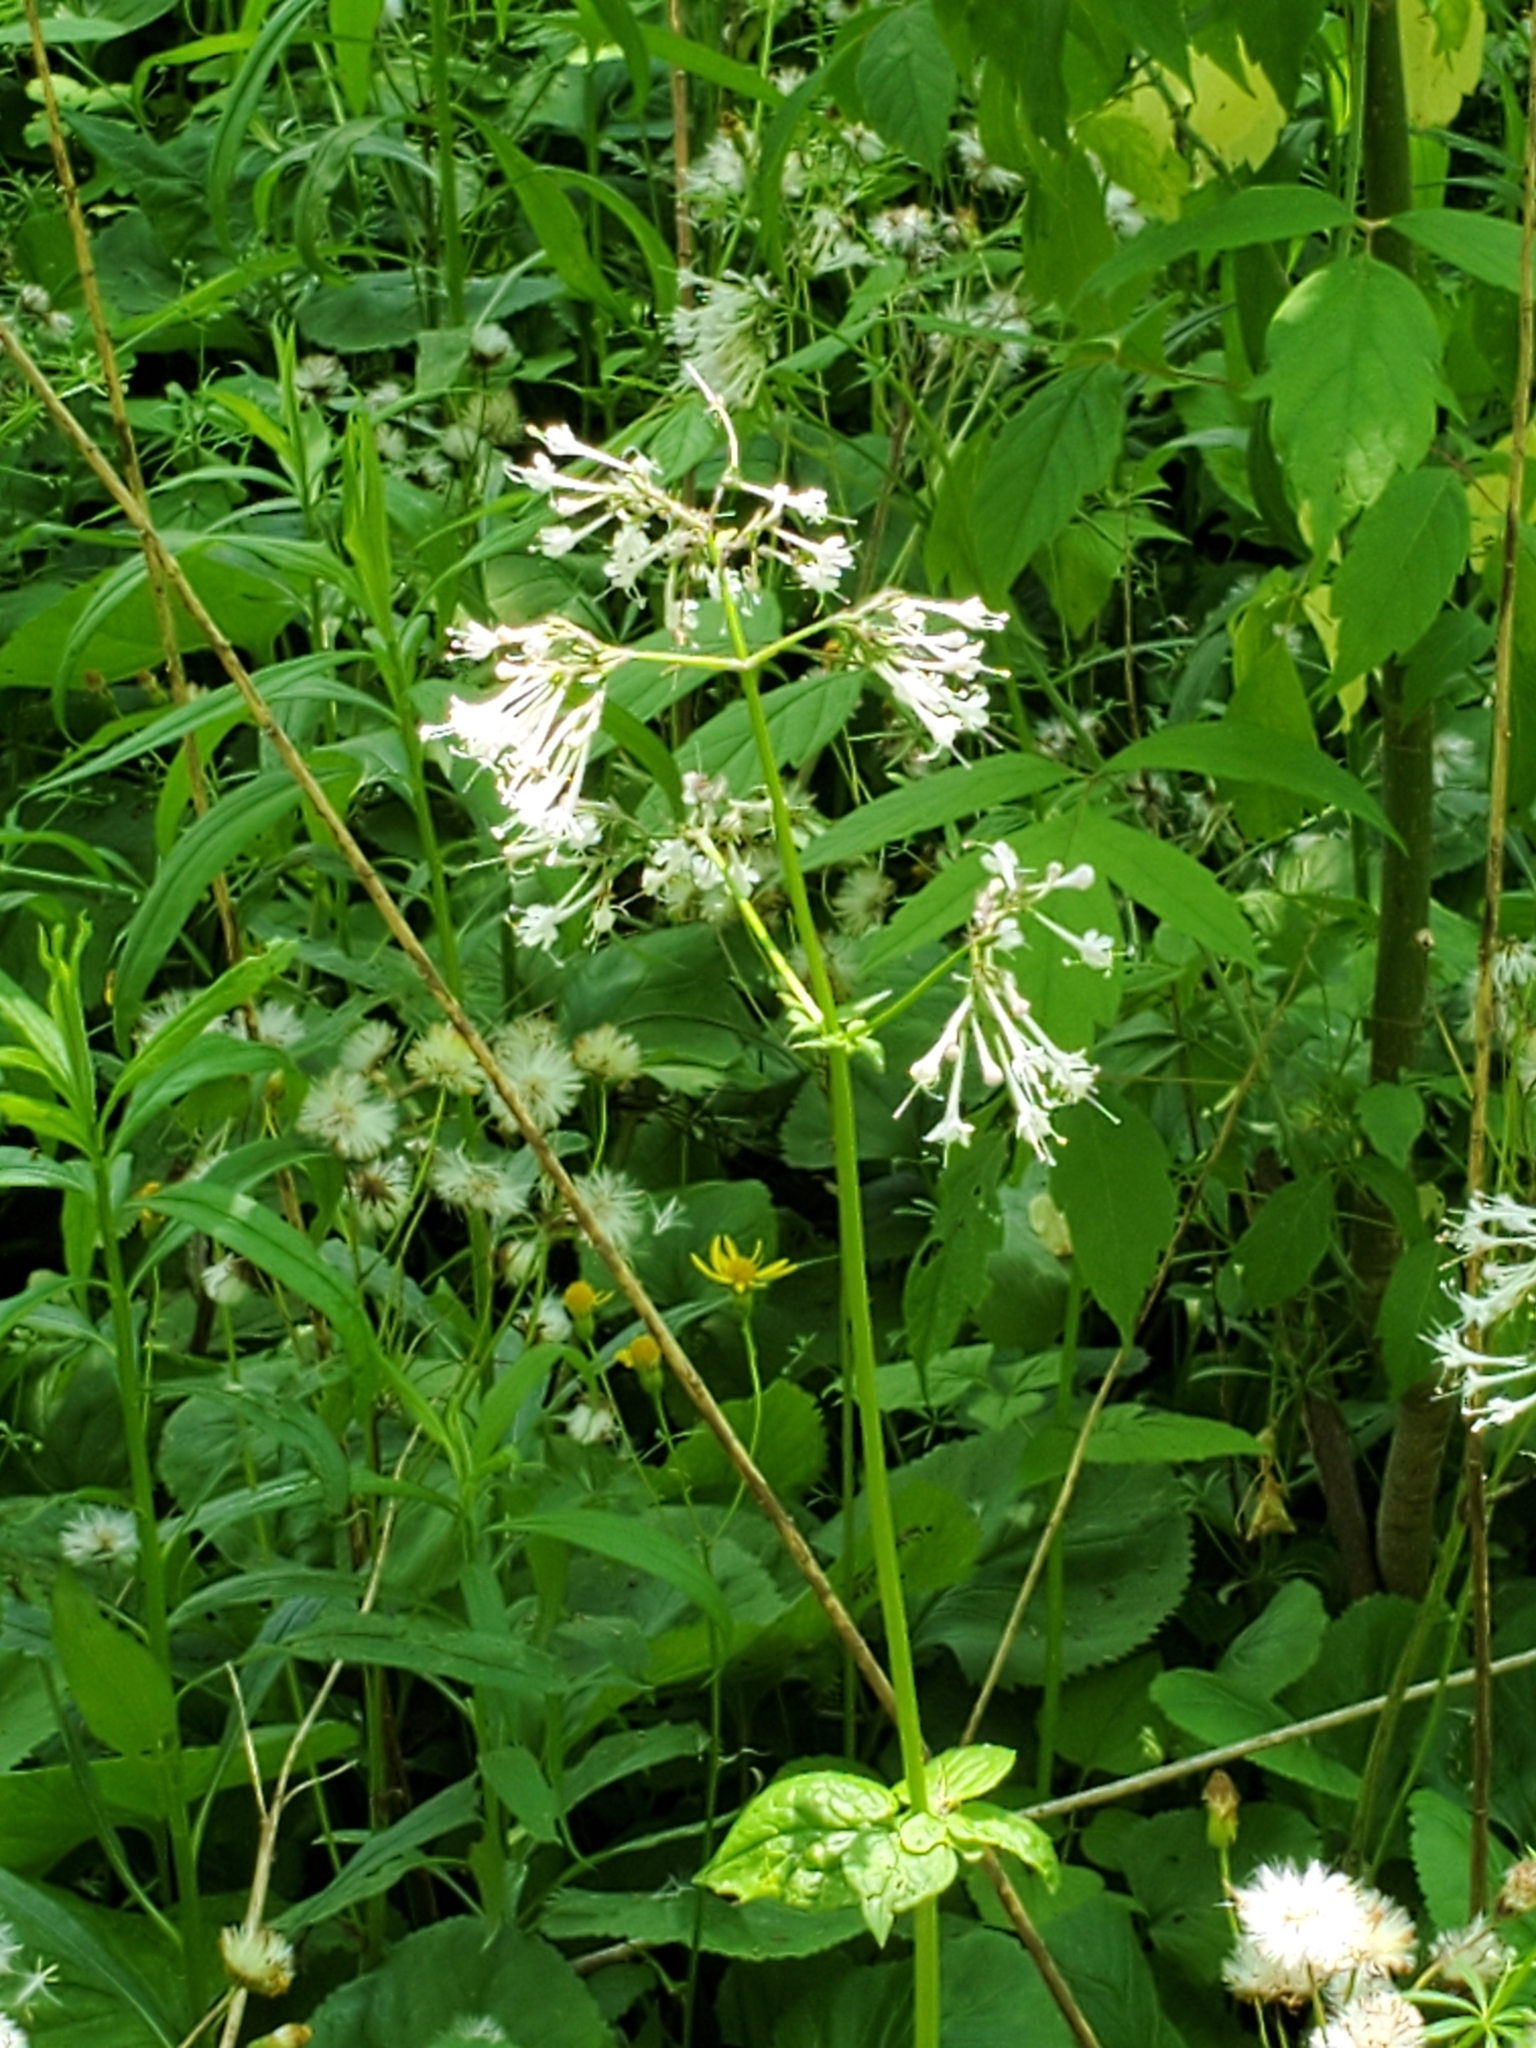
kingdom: Plantae
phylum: Tracheophyta
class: Magnoliopsida
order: Dipsacales
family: Caprifoliaceae
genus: Valeriana
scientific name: Valeriana pauciflora
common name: Long-tube valeriana
